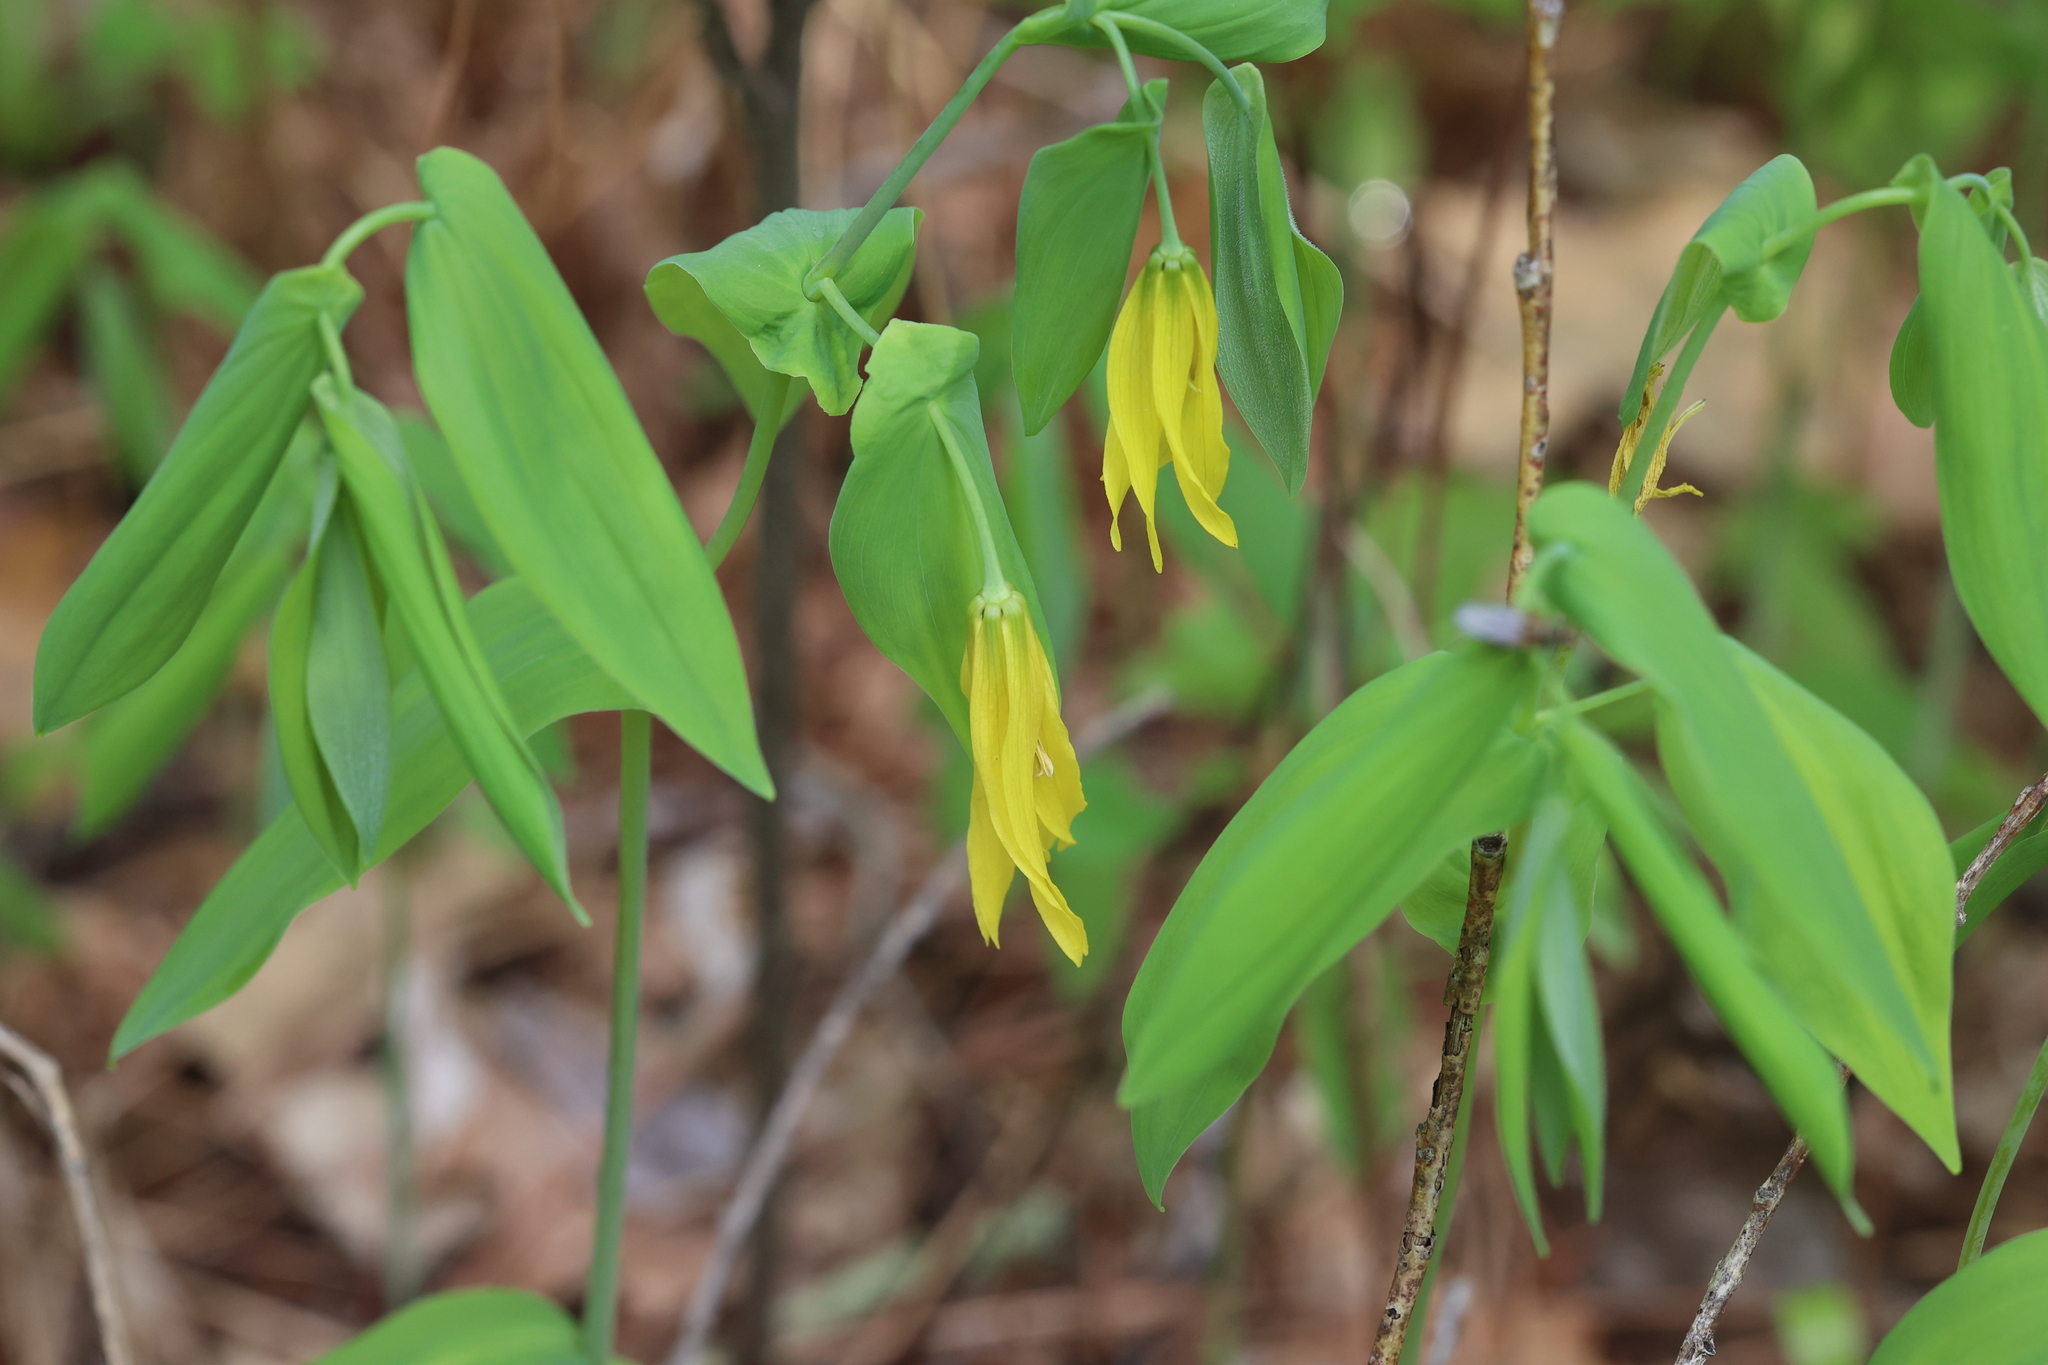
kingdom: Plantae
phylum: Tracheophyta
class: Liliopsida
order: Liliales
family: Colchicaceae
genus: Uvularia
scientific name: Uvularia grandiflora
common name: Bellwort
